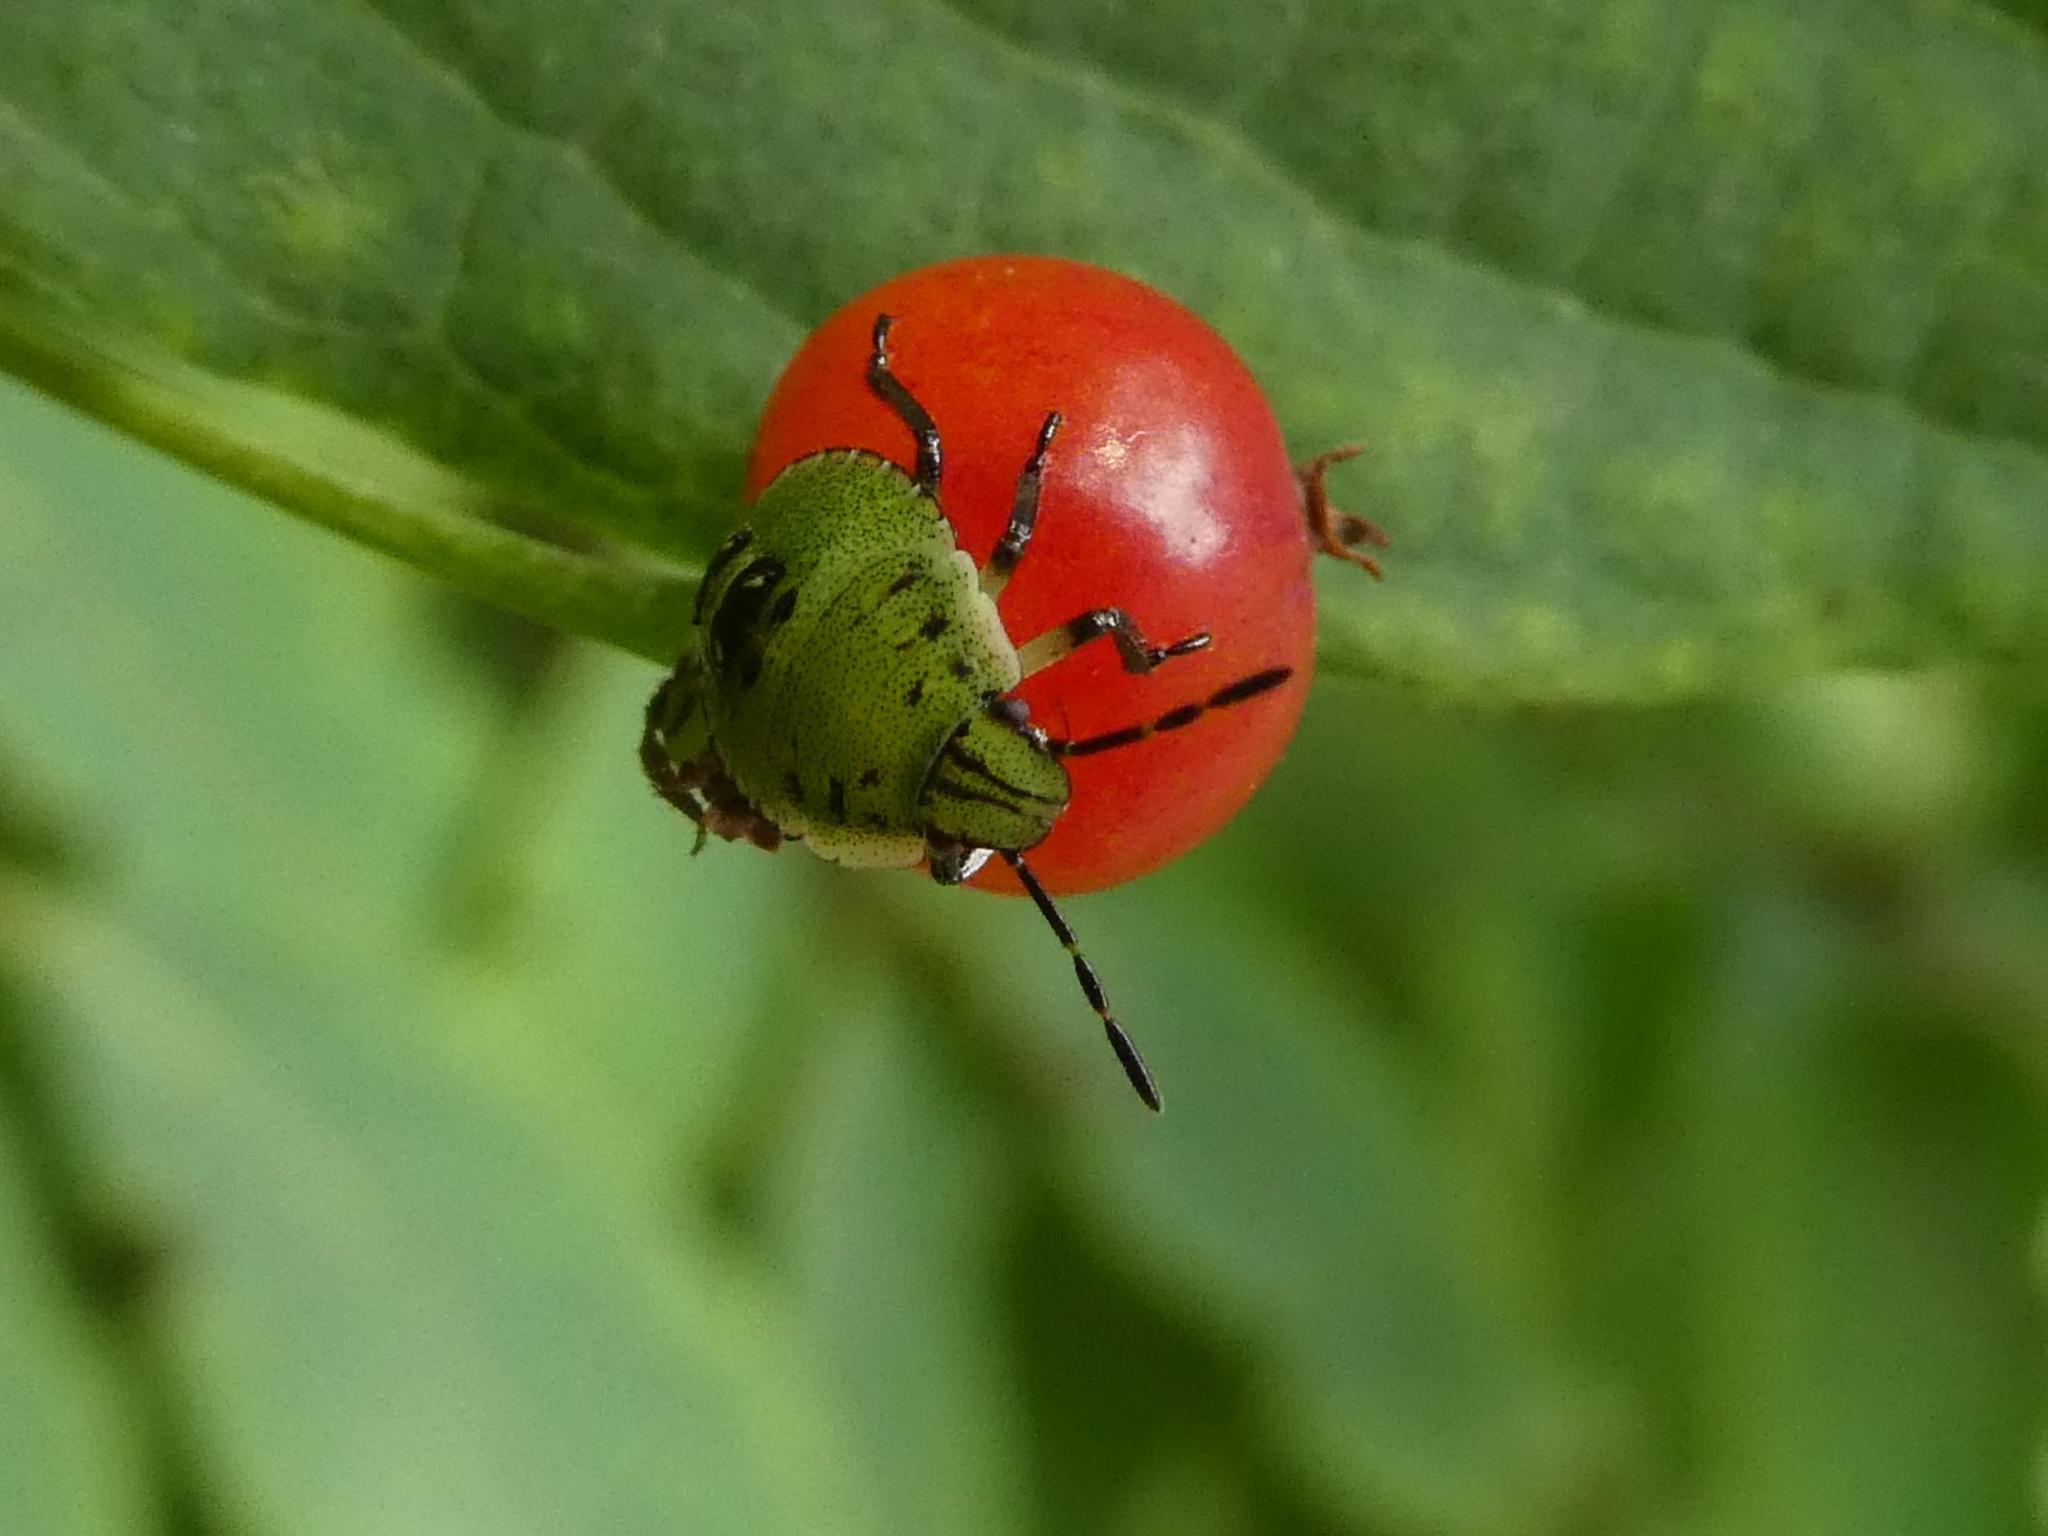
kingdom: Animalia
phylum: Arthropoda
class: Insecta
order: Hemiptera
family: Pentatomidae
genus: Palomena
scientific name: Palomena prasina
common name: Green shieldbug
